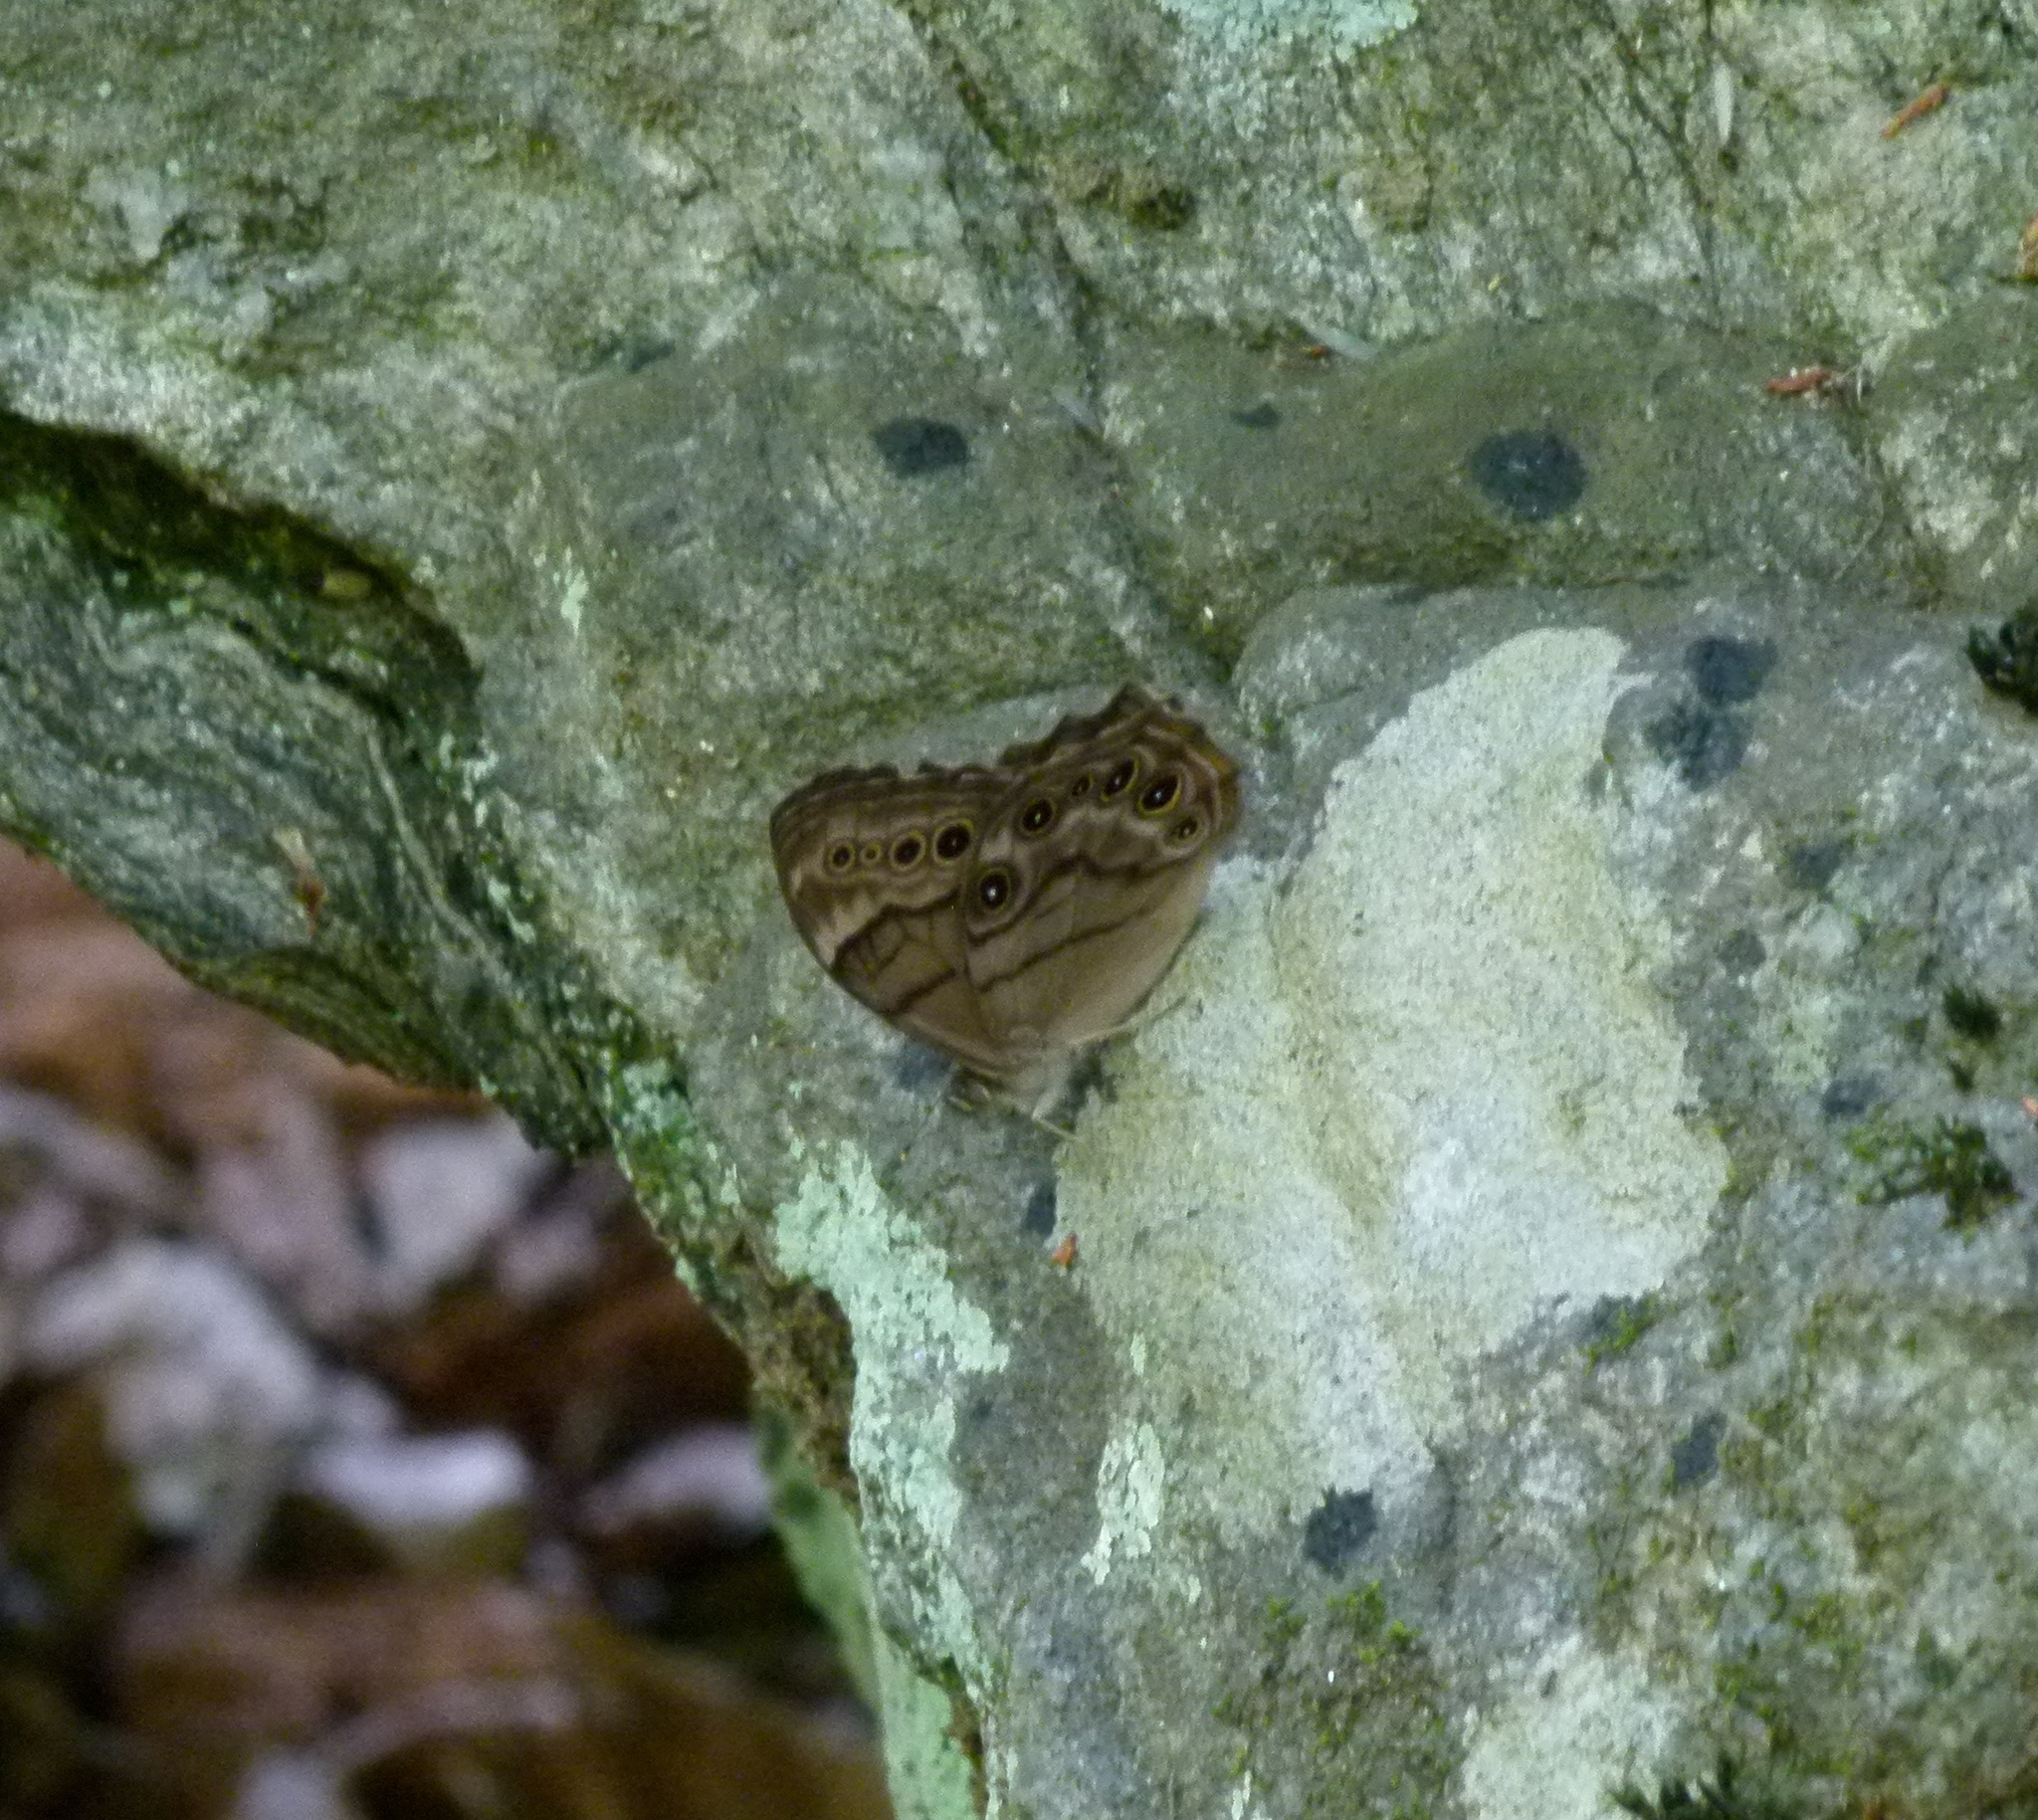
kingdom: Animalia
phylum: Arthropoda
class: Insecta
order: Lepidoptera
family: Nymphalidae
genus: Lethe
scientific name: Lethe anthedon
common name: Northern pearly-eye
